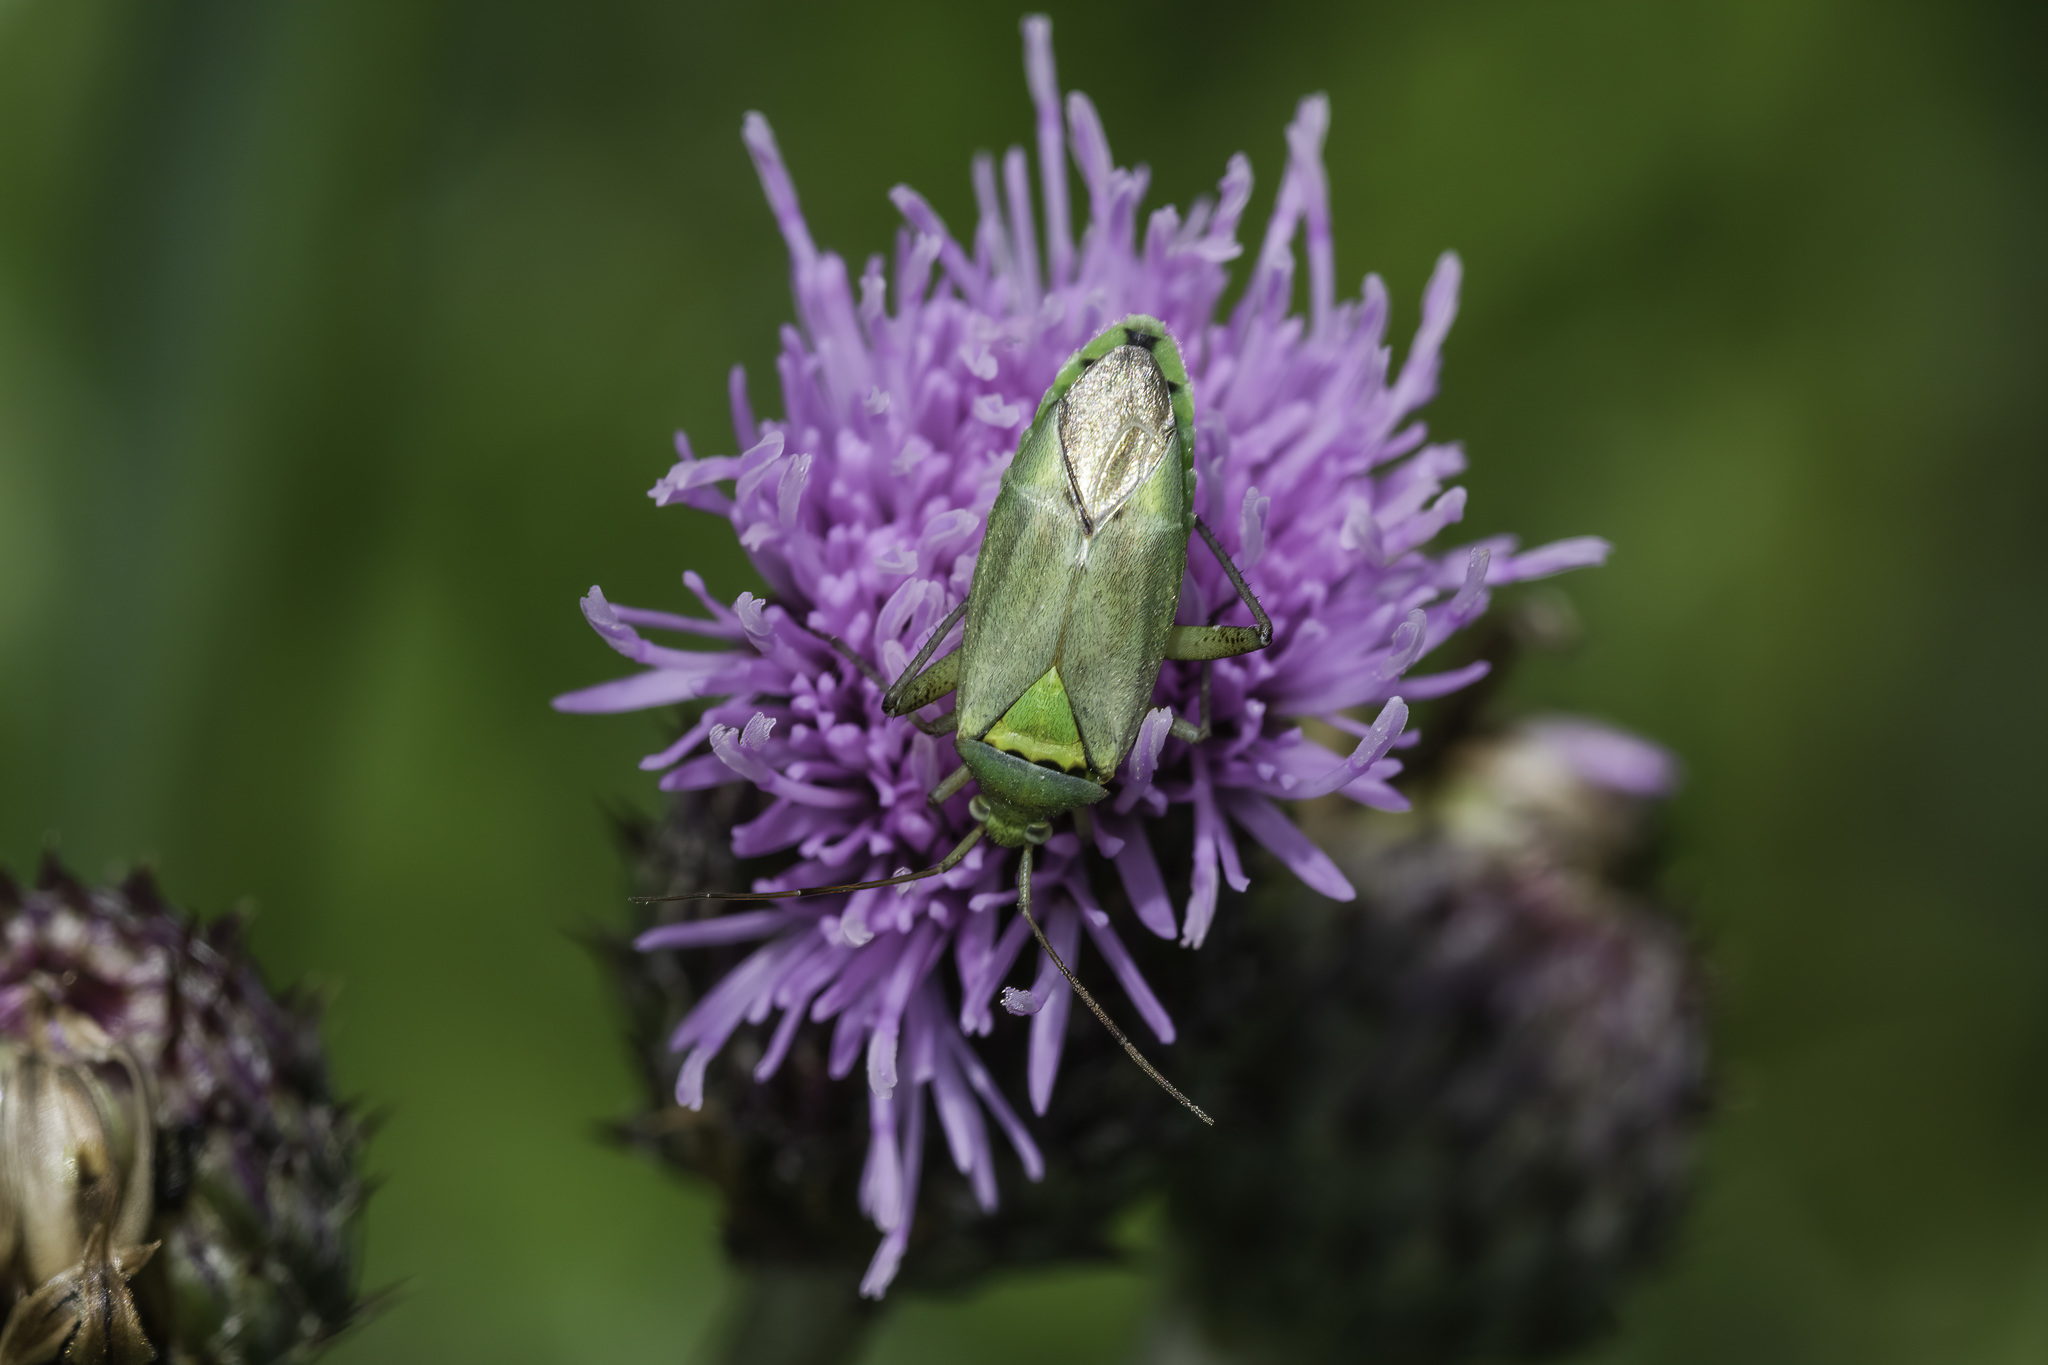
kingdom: Animalia
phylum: Arthropoda
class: Insecta
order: Hemiptera
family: Miridae
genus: Closterotomus
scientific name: Closterotomus norvegicus
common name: Plant bug
